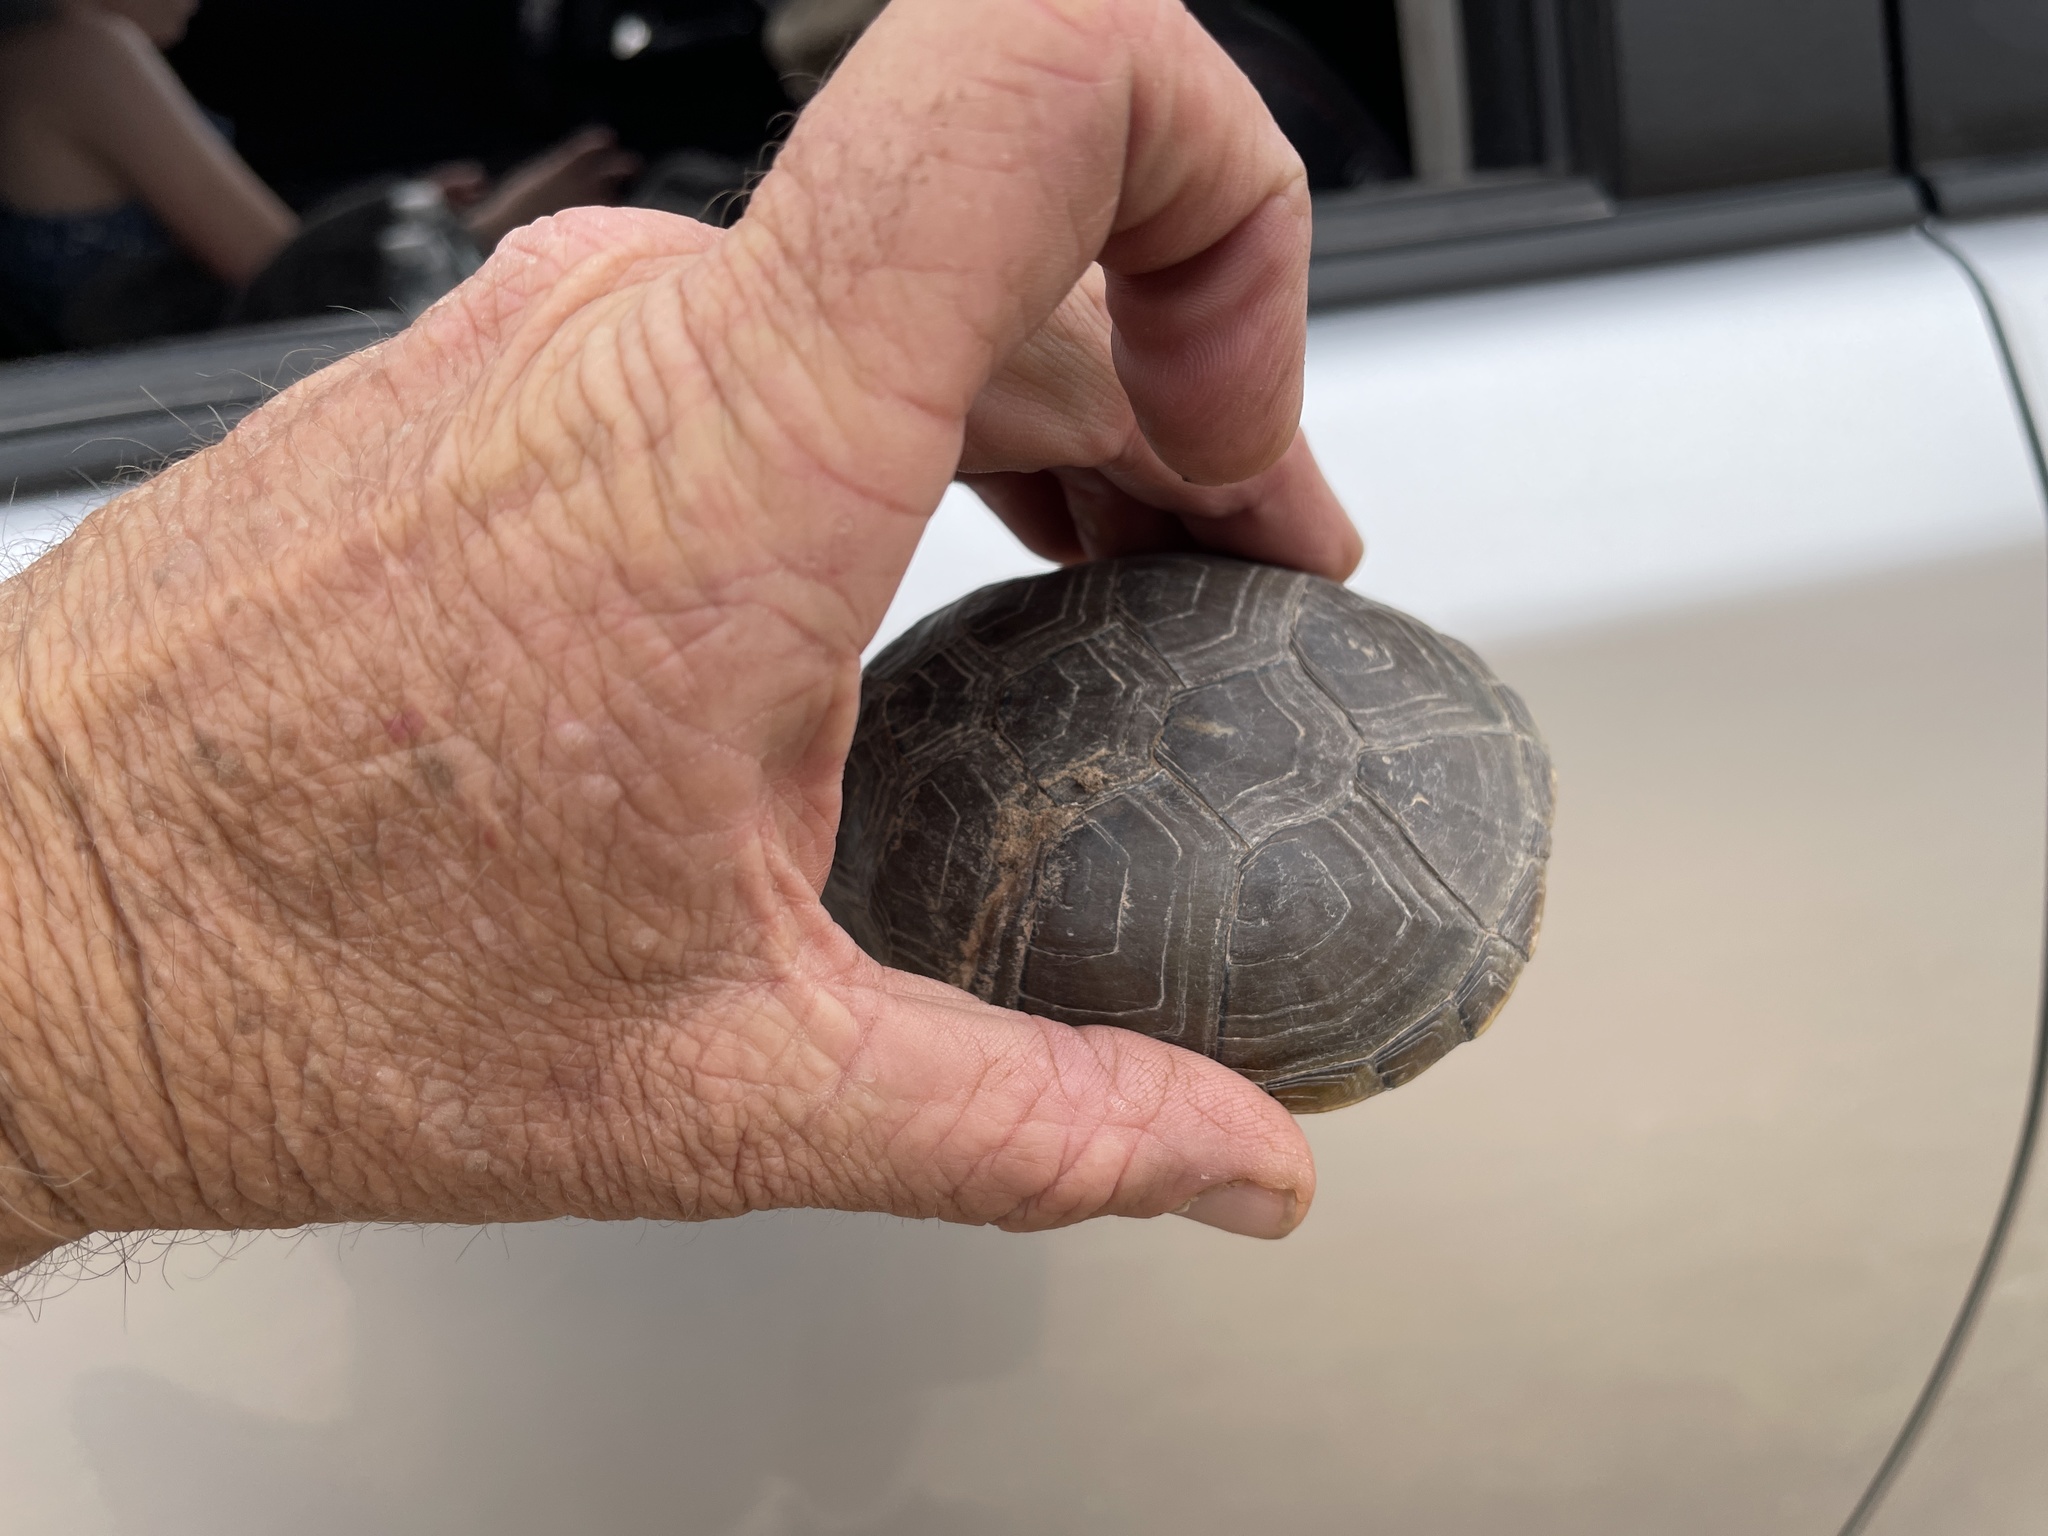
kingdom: Animalia
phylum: Chordata
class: Testudines
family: Kinosternidae
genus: Kinosternon
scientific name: Kinosternon flavescens
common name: Yellow mud turtle
